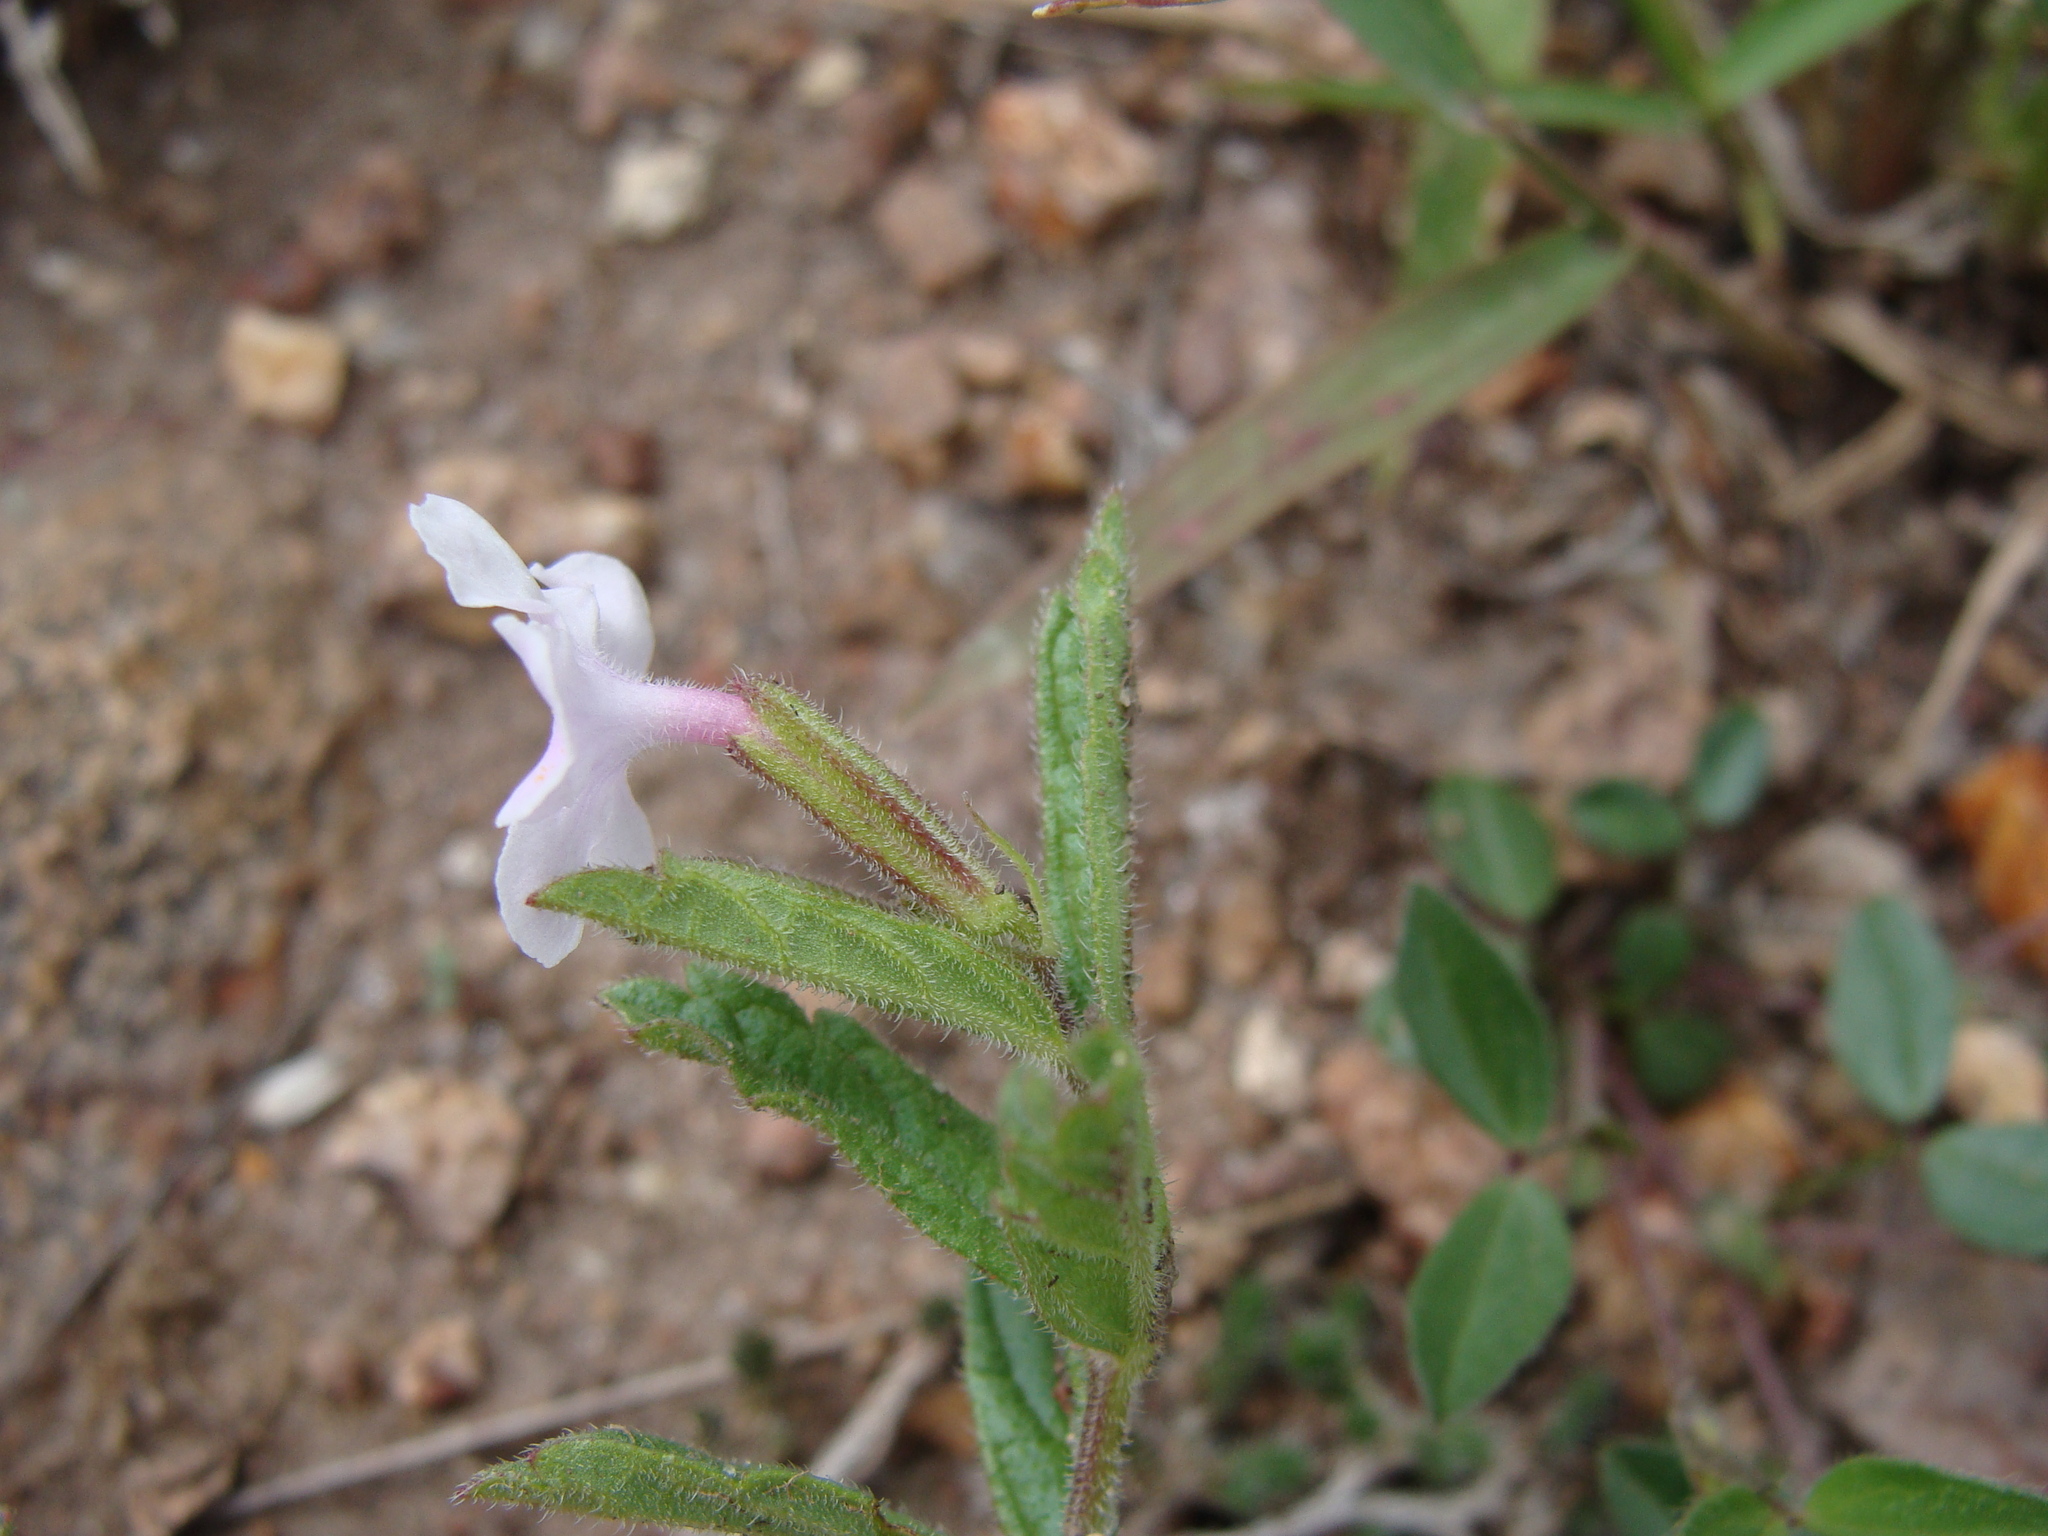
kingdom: Plantae
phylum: Tracheophyta
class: Magnoliopsida
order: Lamiales
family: Verbenaceae
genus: Priva
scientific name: Priva grandiflora
